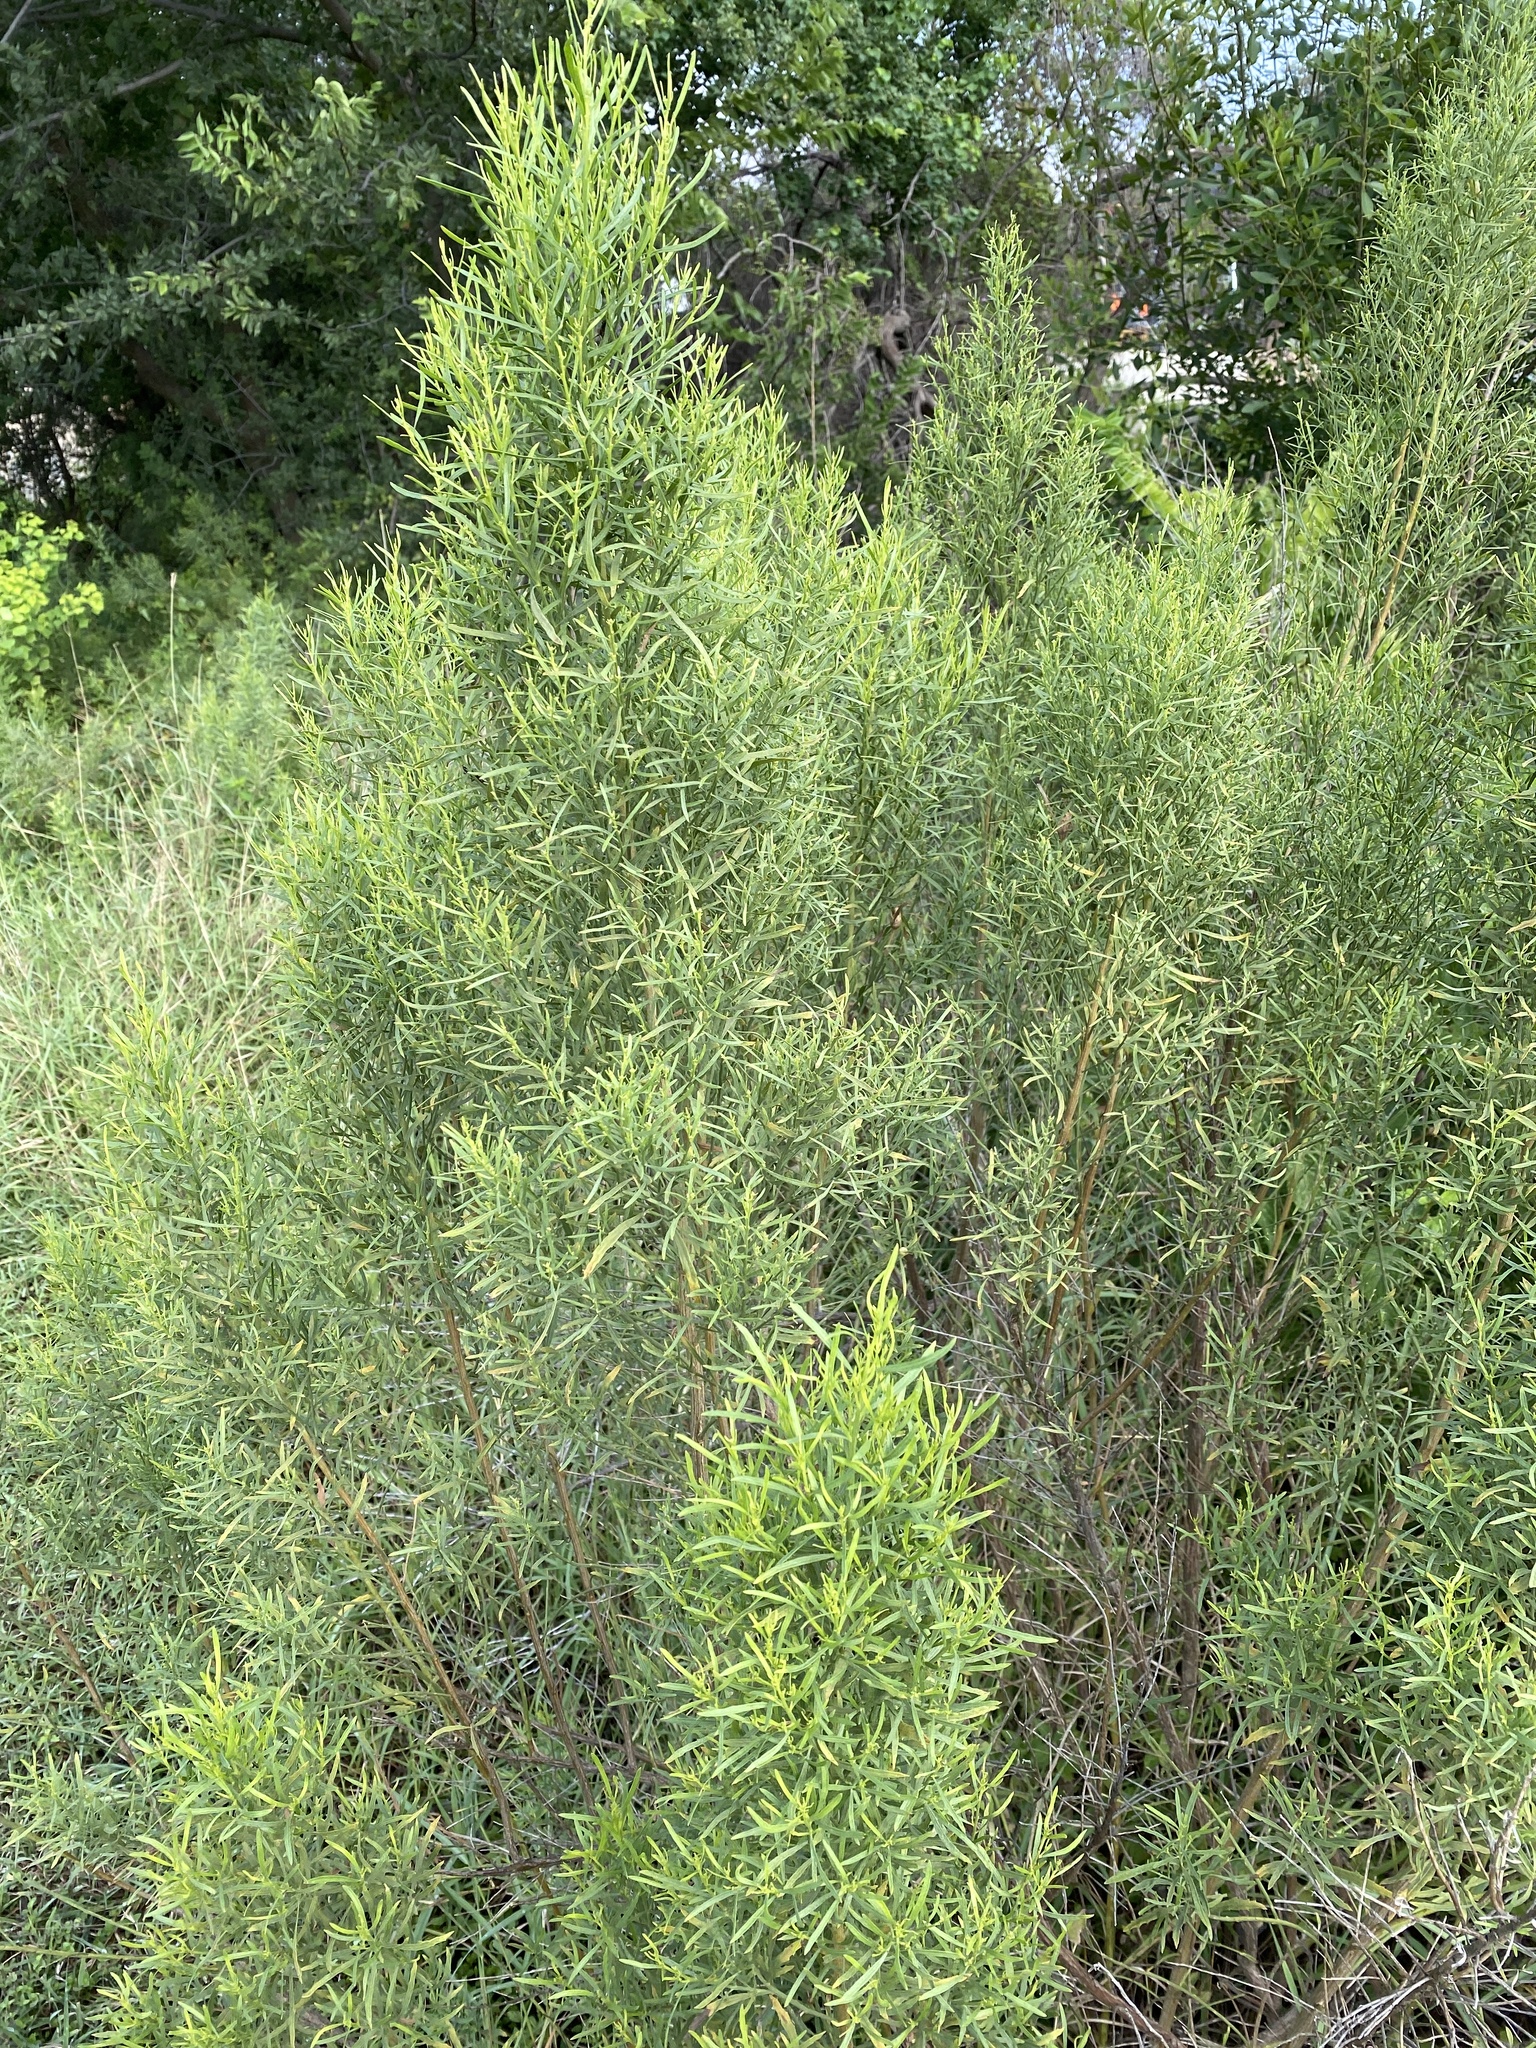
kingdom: Plantae
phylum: Tracheophyta
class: Magnoliopsida
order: Asterales
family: Asteraceae
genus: Baccharis
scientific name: Baccharis neglecta
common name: Roosevelt-weed
